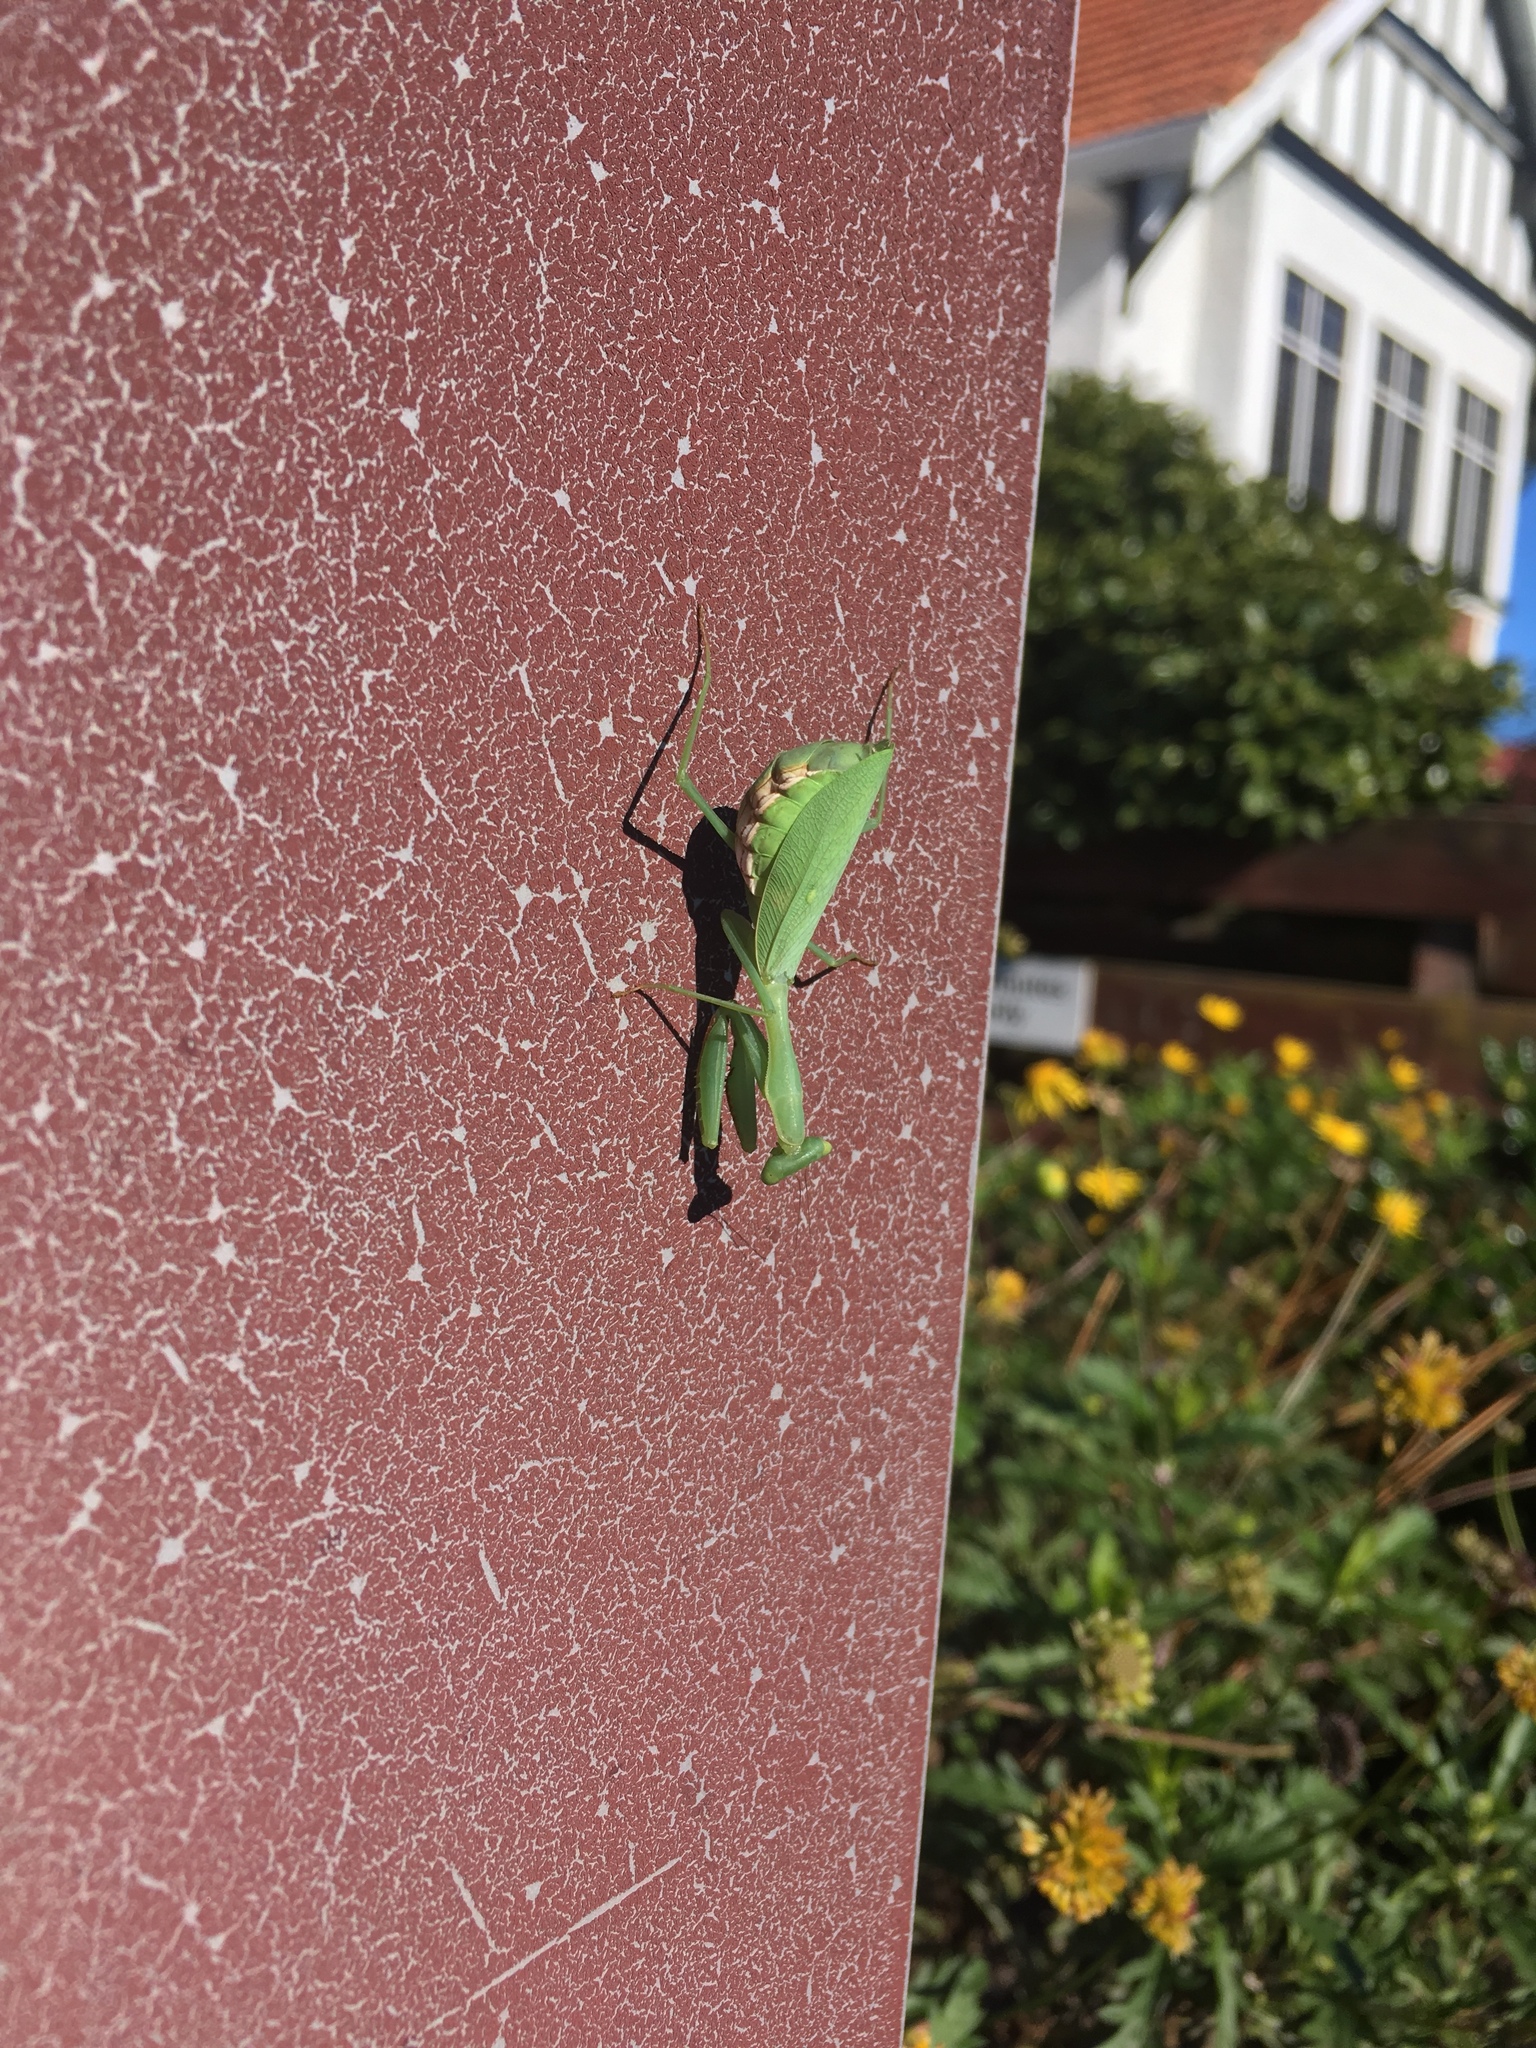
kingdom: Animalia
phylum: Arthropoda
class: Insecta
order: Mantodea
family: Miomantidae
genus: Miomantis
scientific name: Miomantis caffra
